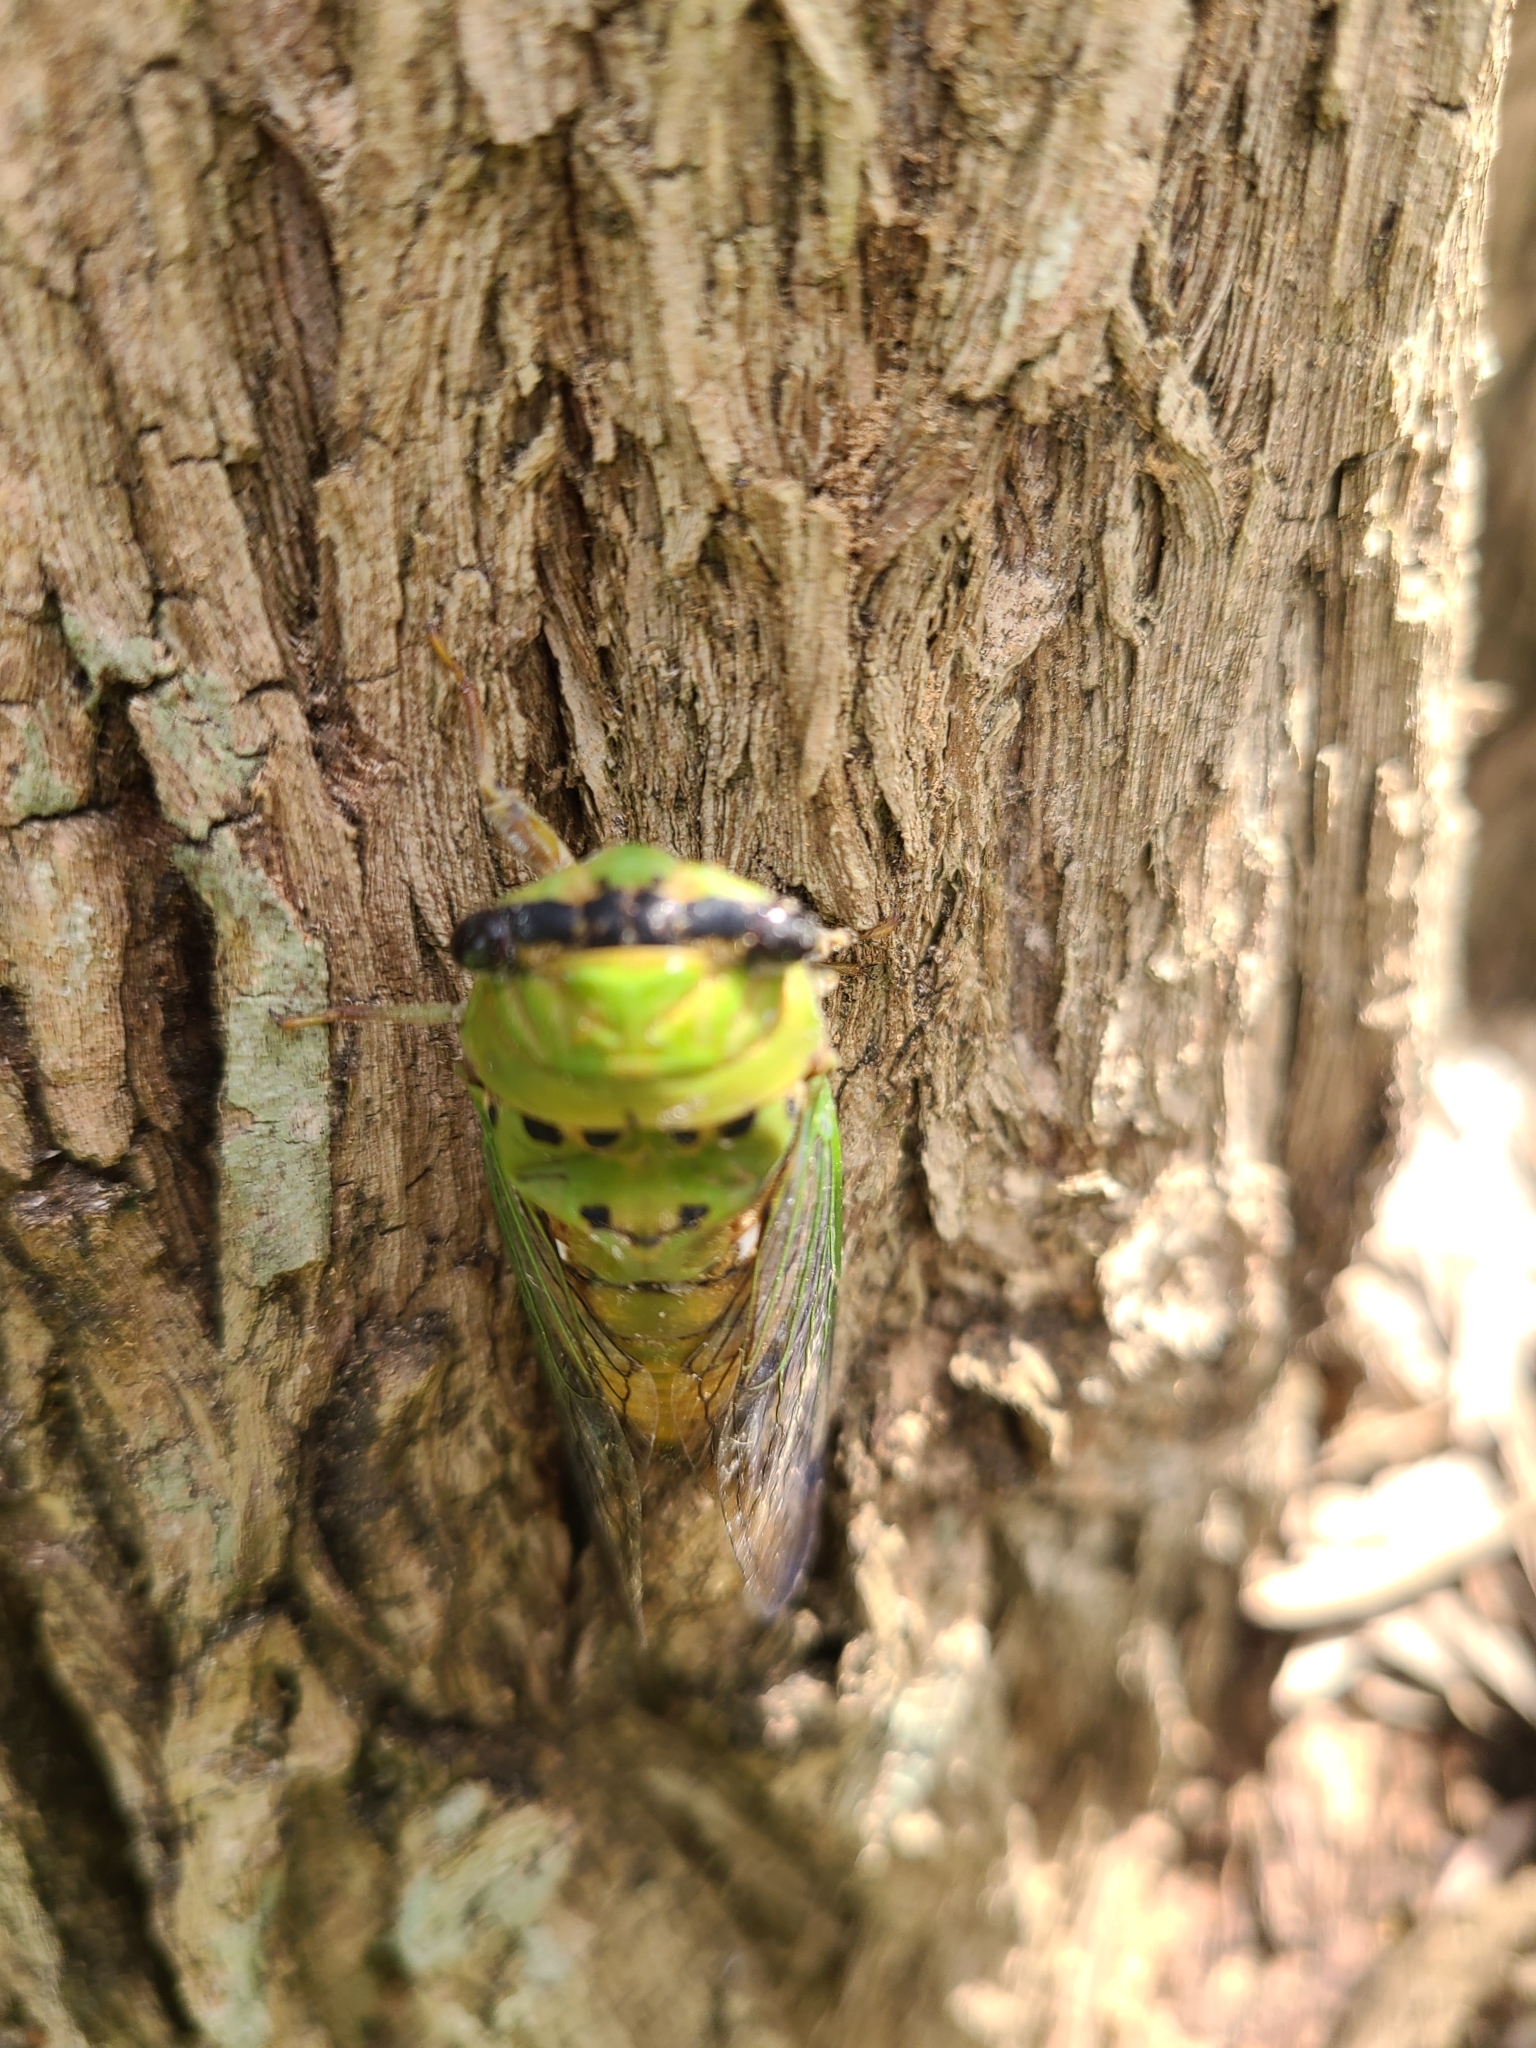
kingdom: Animalia
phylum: Arthropoda
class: Insecta
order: Hemiptera
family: Cicadidae
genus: Neotibicen
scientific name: Neotibicen superbus
